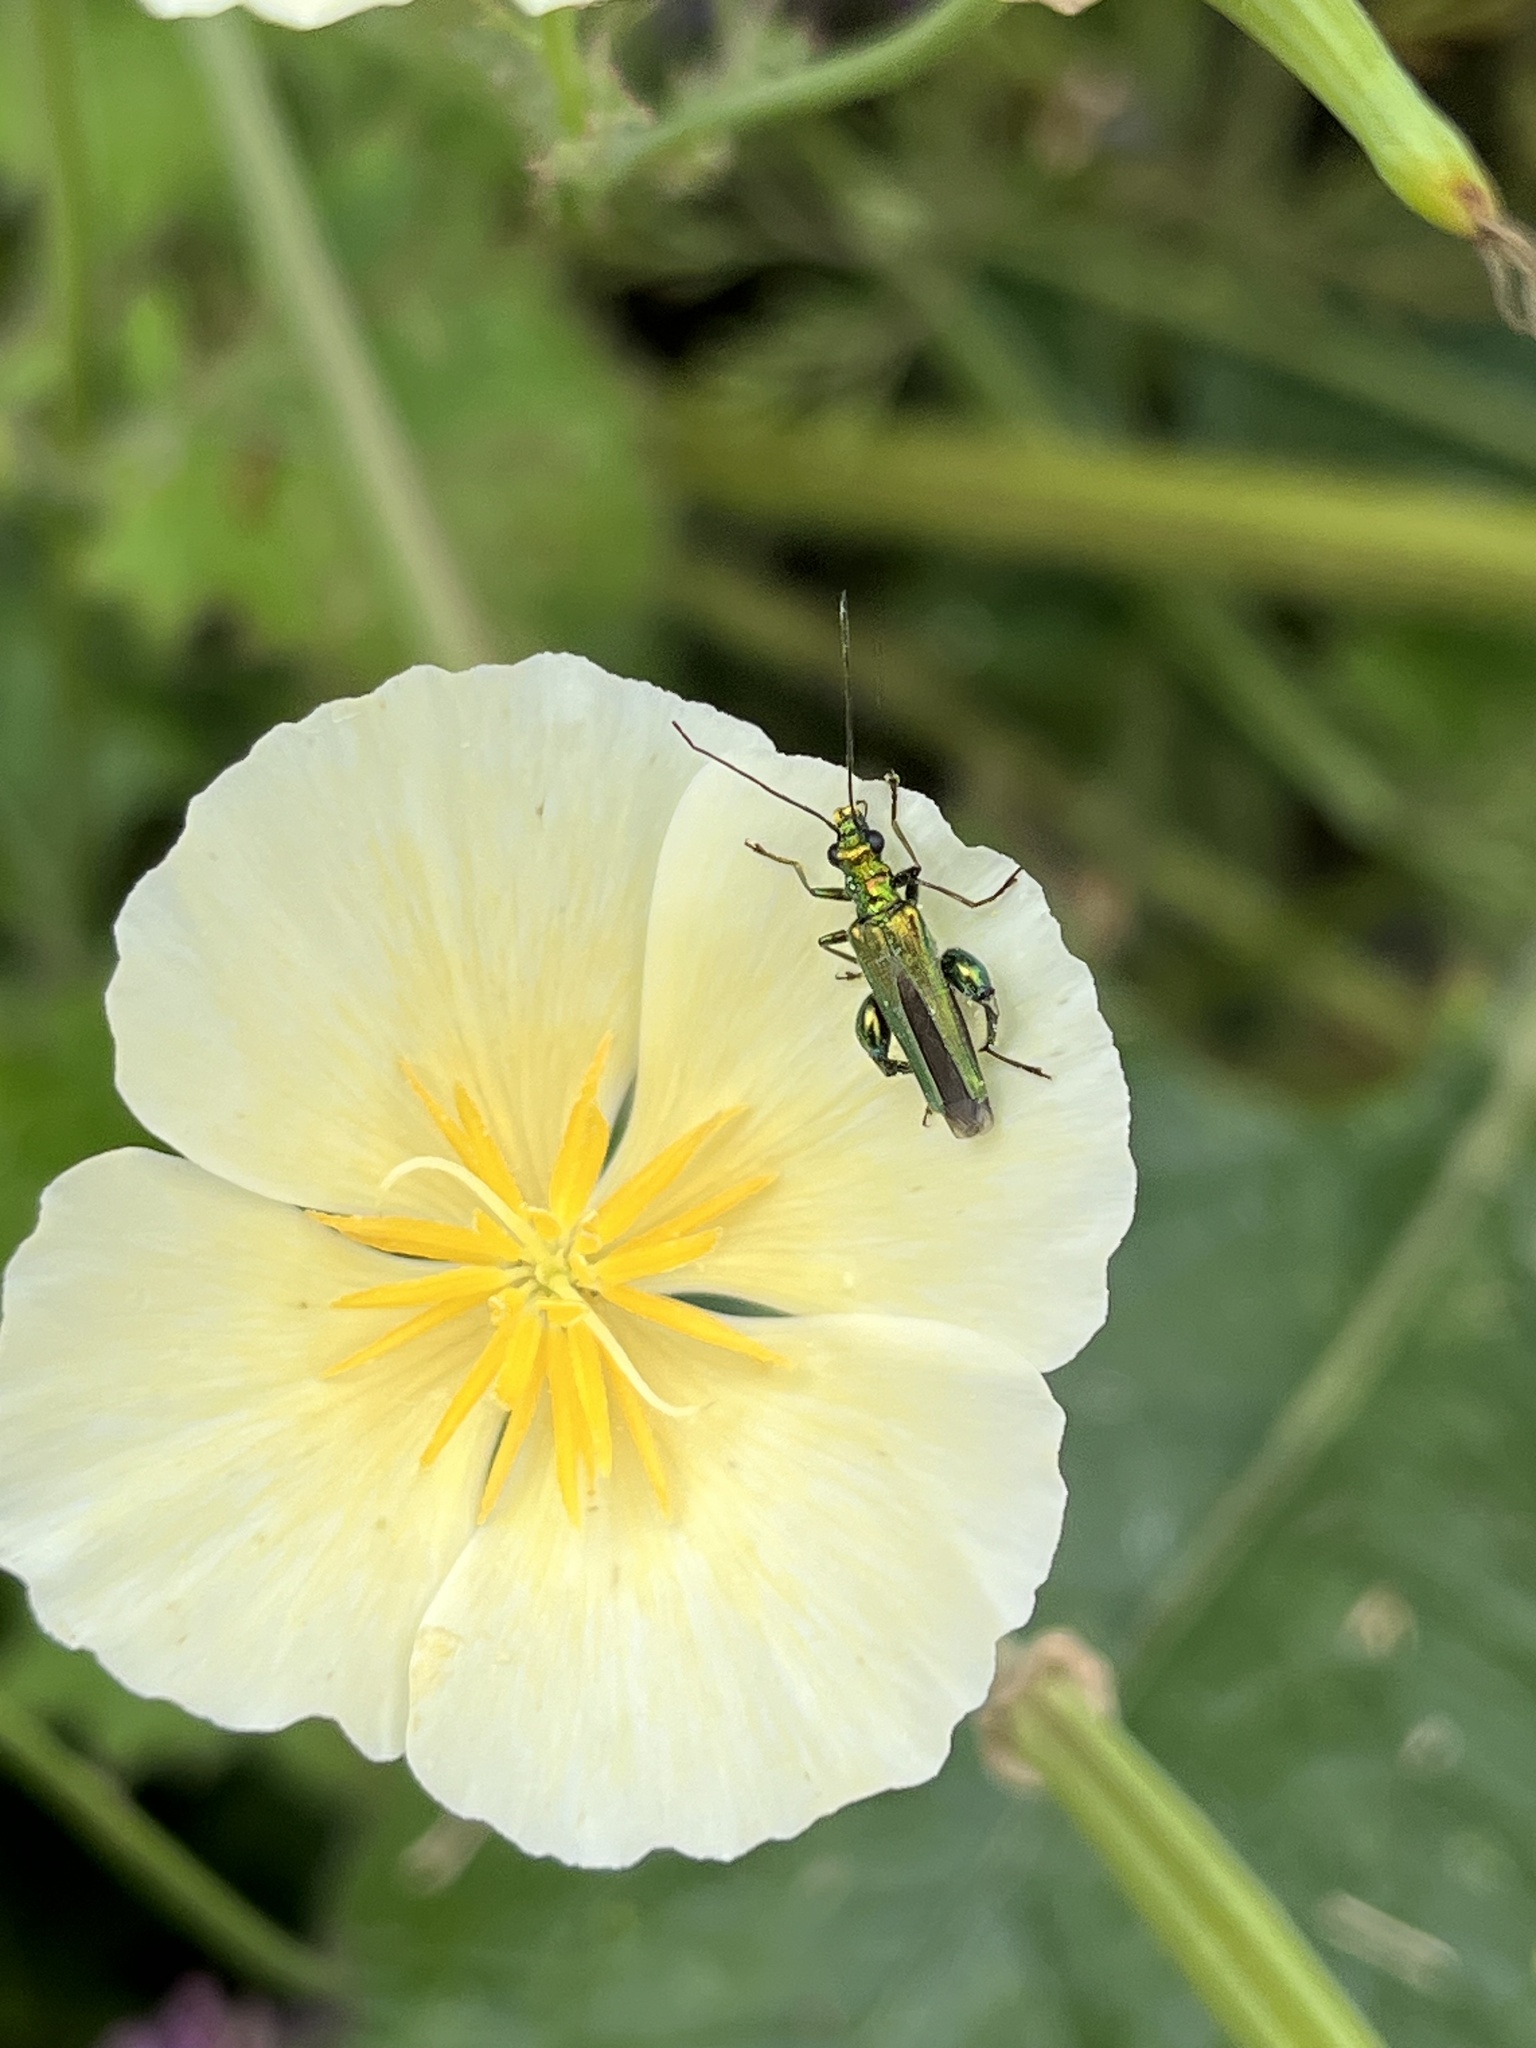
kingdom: Animalia
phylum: Arthropoda
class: Insecta
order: Coleoptera
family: Oedemeridae
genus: Oedemera
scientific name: Oedemera nobilis
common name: Swollen-thighed beetle
